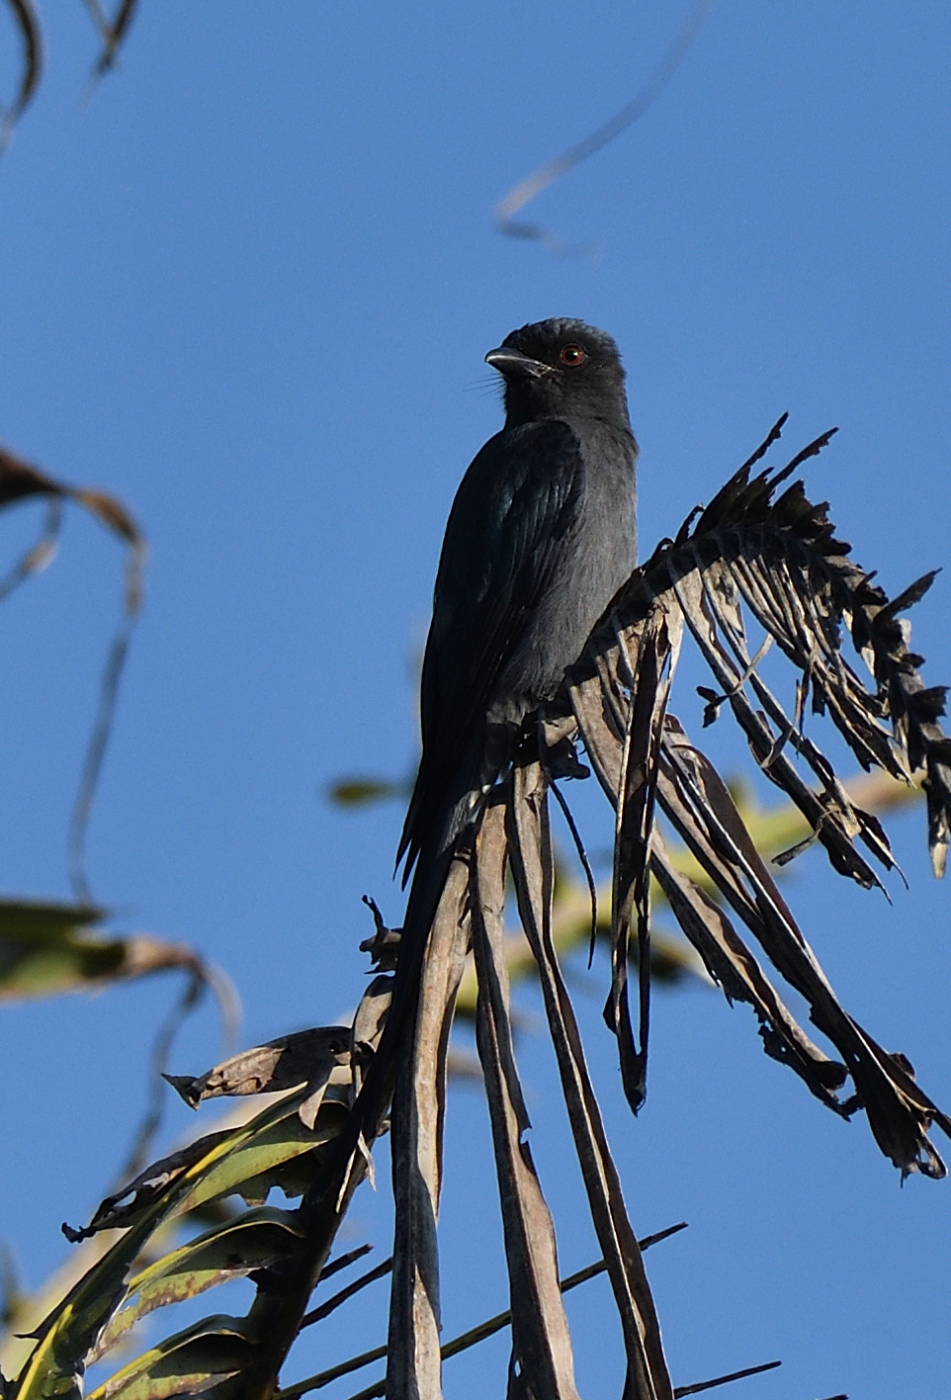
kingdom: Animalia
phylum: Chordata
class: Aves
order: Passeriformes
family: Dicruridae
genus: Dicrurus
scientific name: Dicrurus leucophaeus
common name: Ashy drongo
